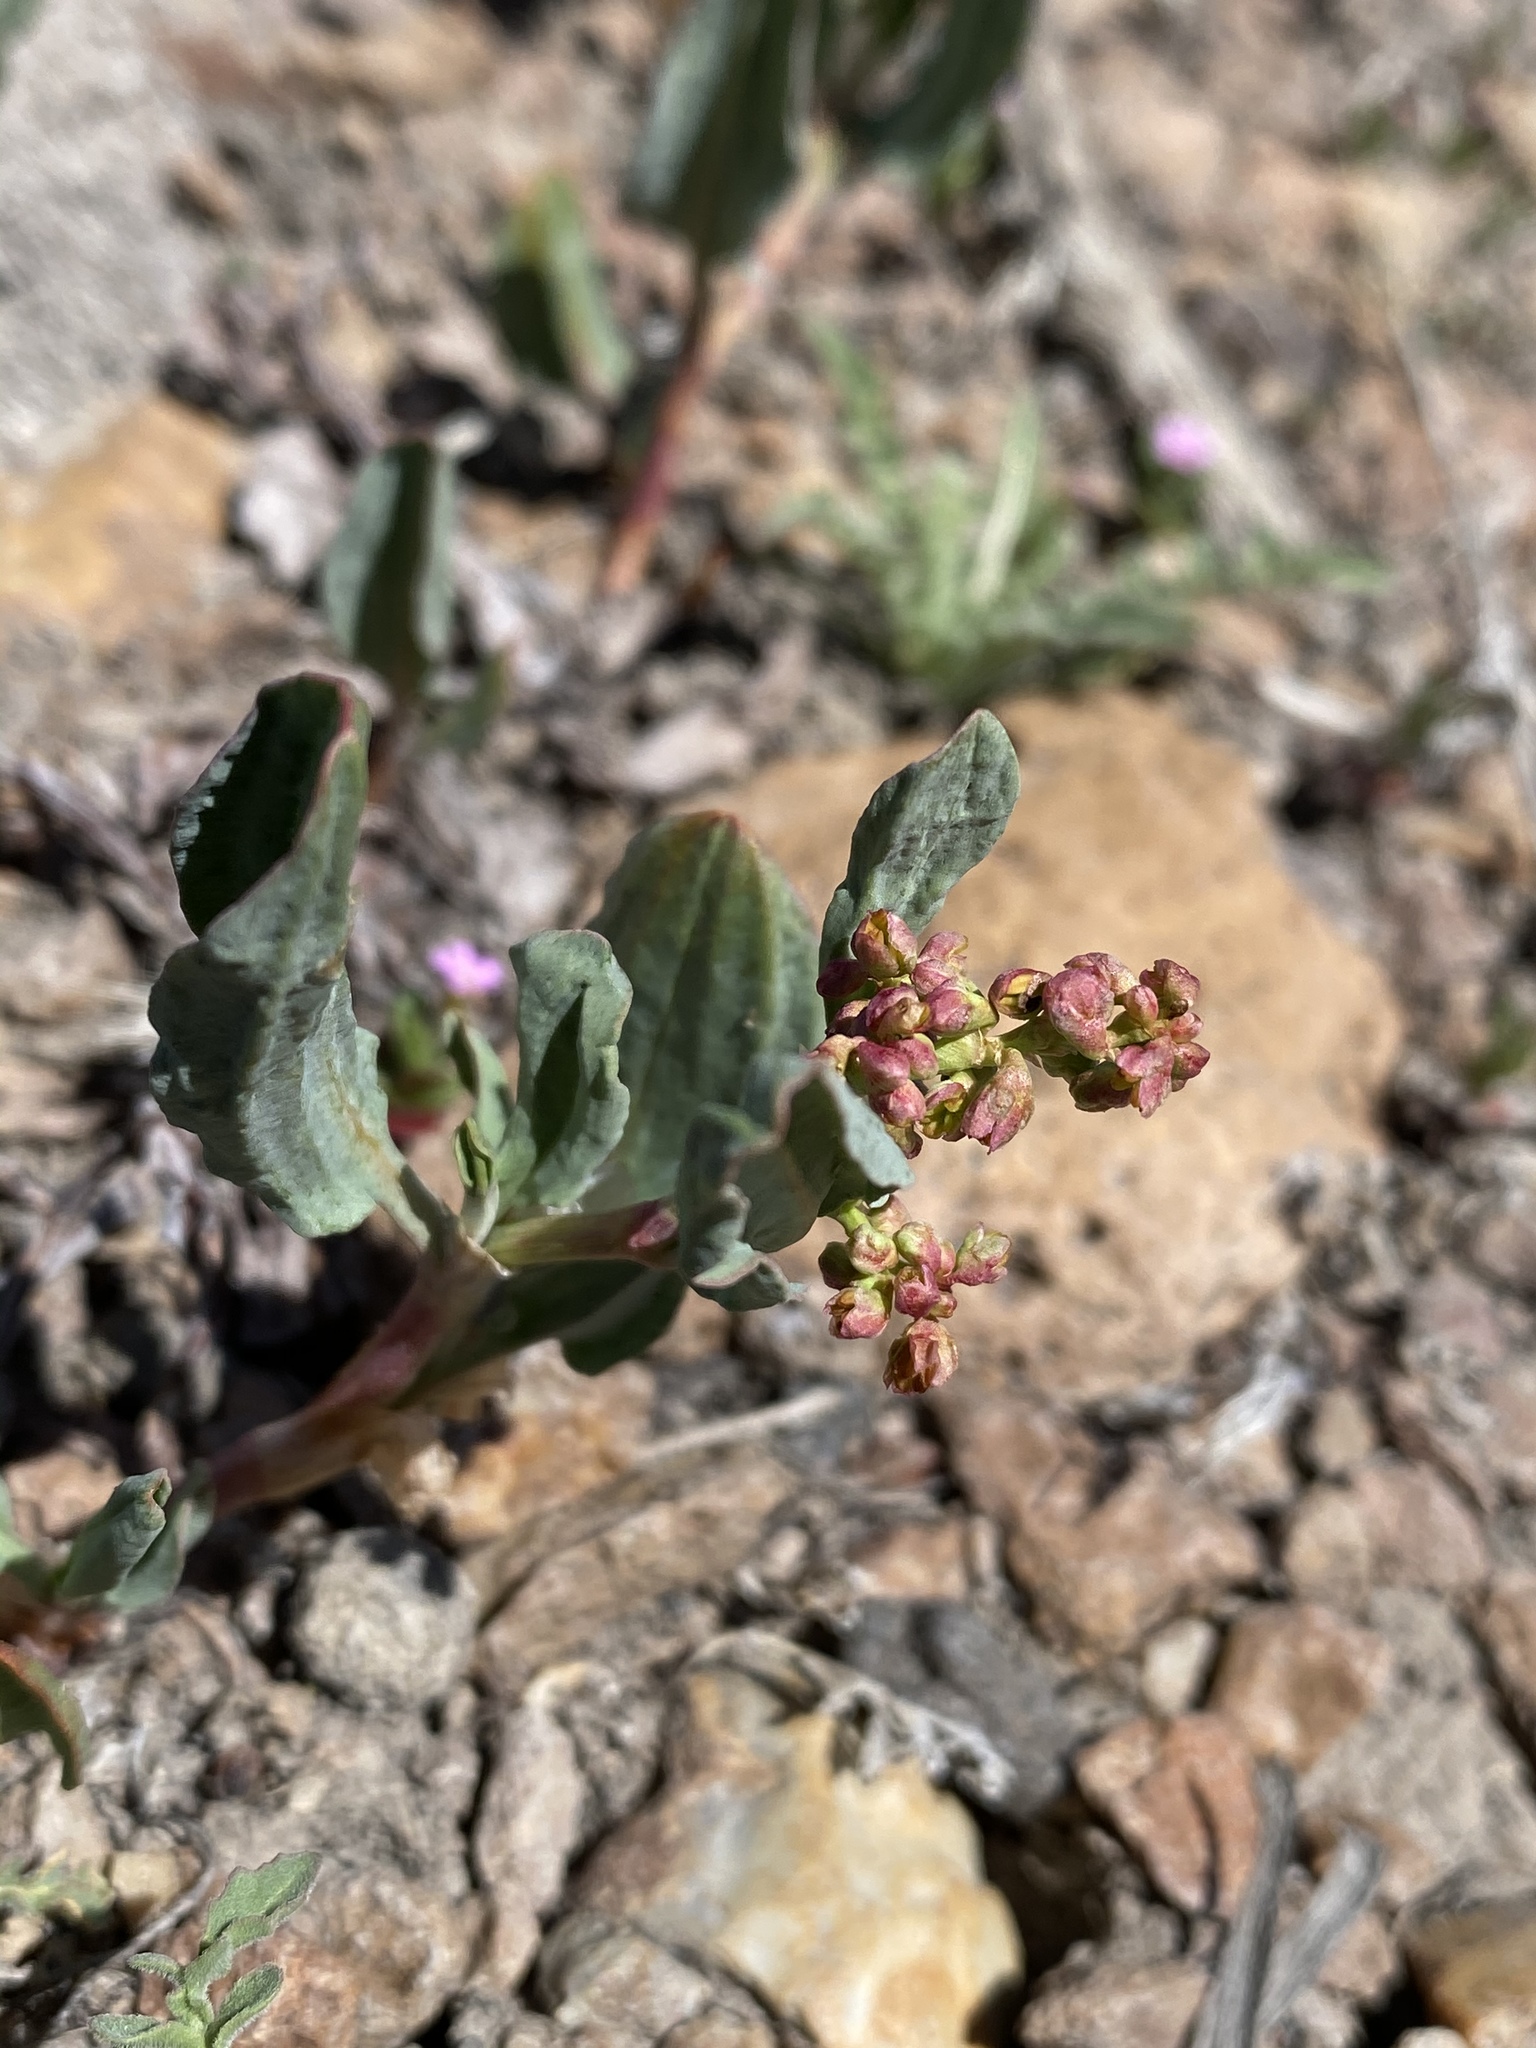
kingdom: Plantae
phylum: Tracheophyta
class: Magnoliopsida
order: Caryophyllales
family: Polygonaceae
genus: Rumex
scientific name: Rumex lacustris
